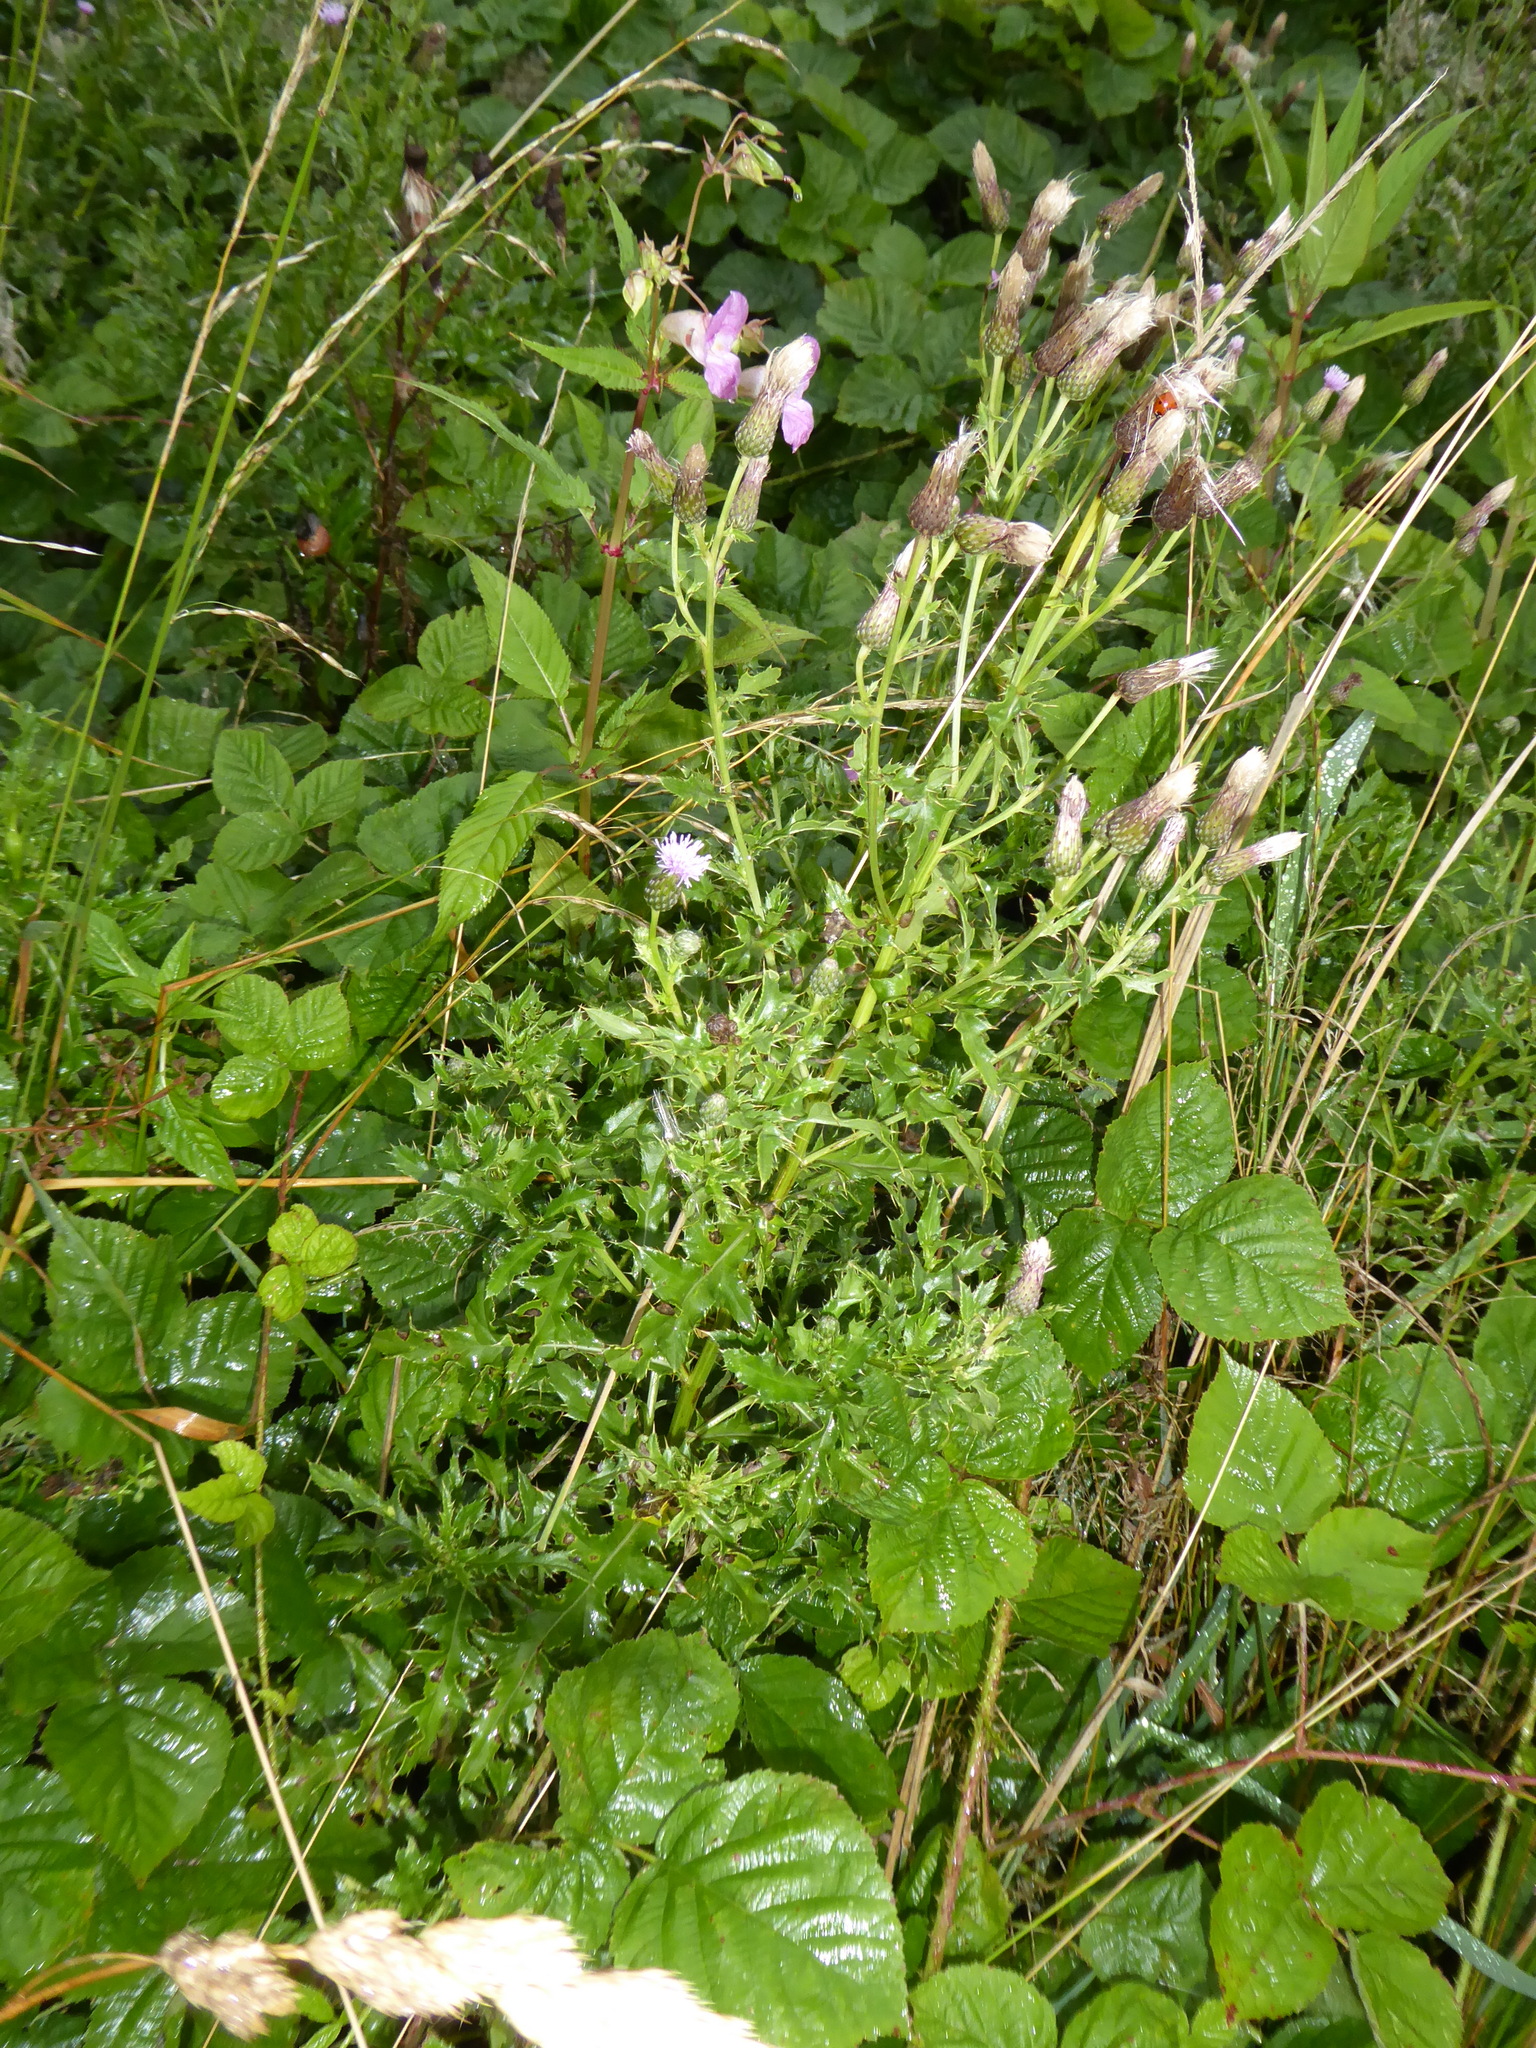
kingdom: Plantae
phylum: Tracheophyta
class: Magnoliopsida
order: Asterales
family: Asteraceae
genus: Cirsium
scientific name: Cirsium arvense
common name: Creeping thistle
